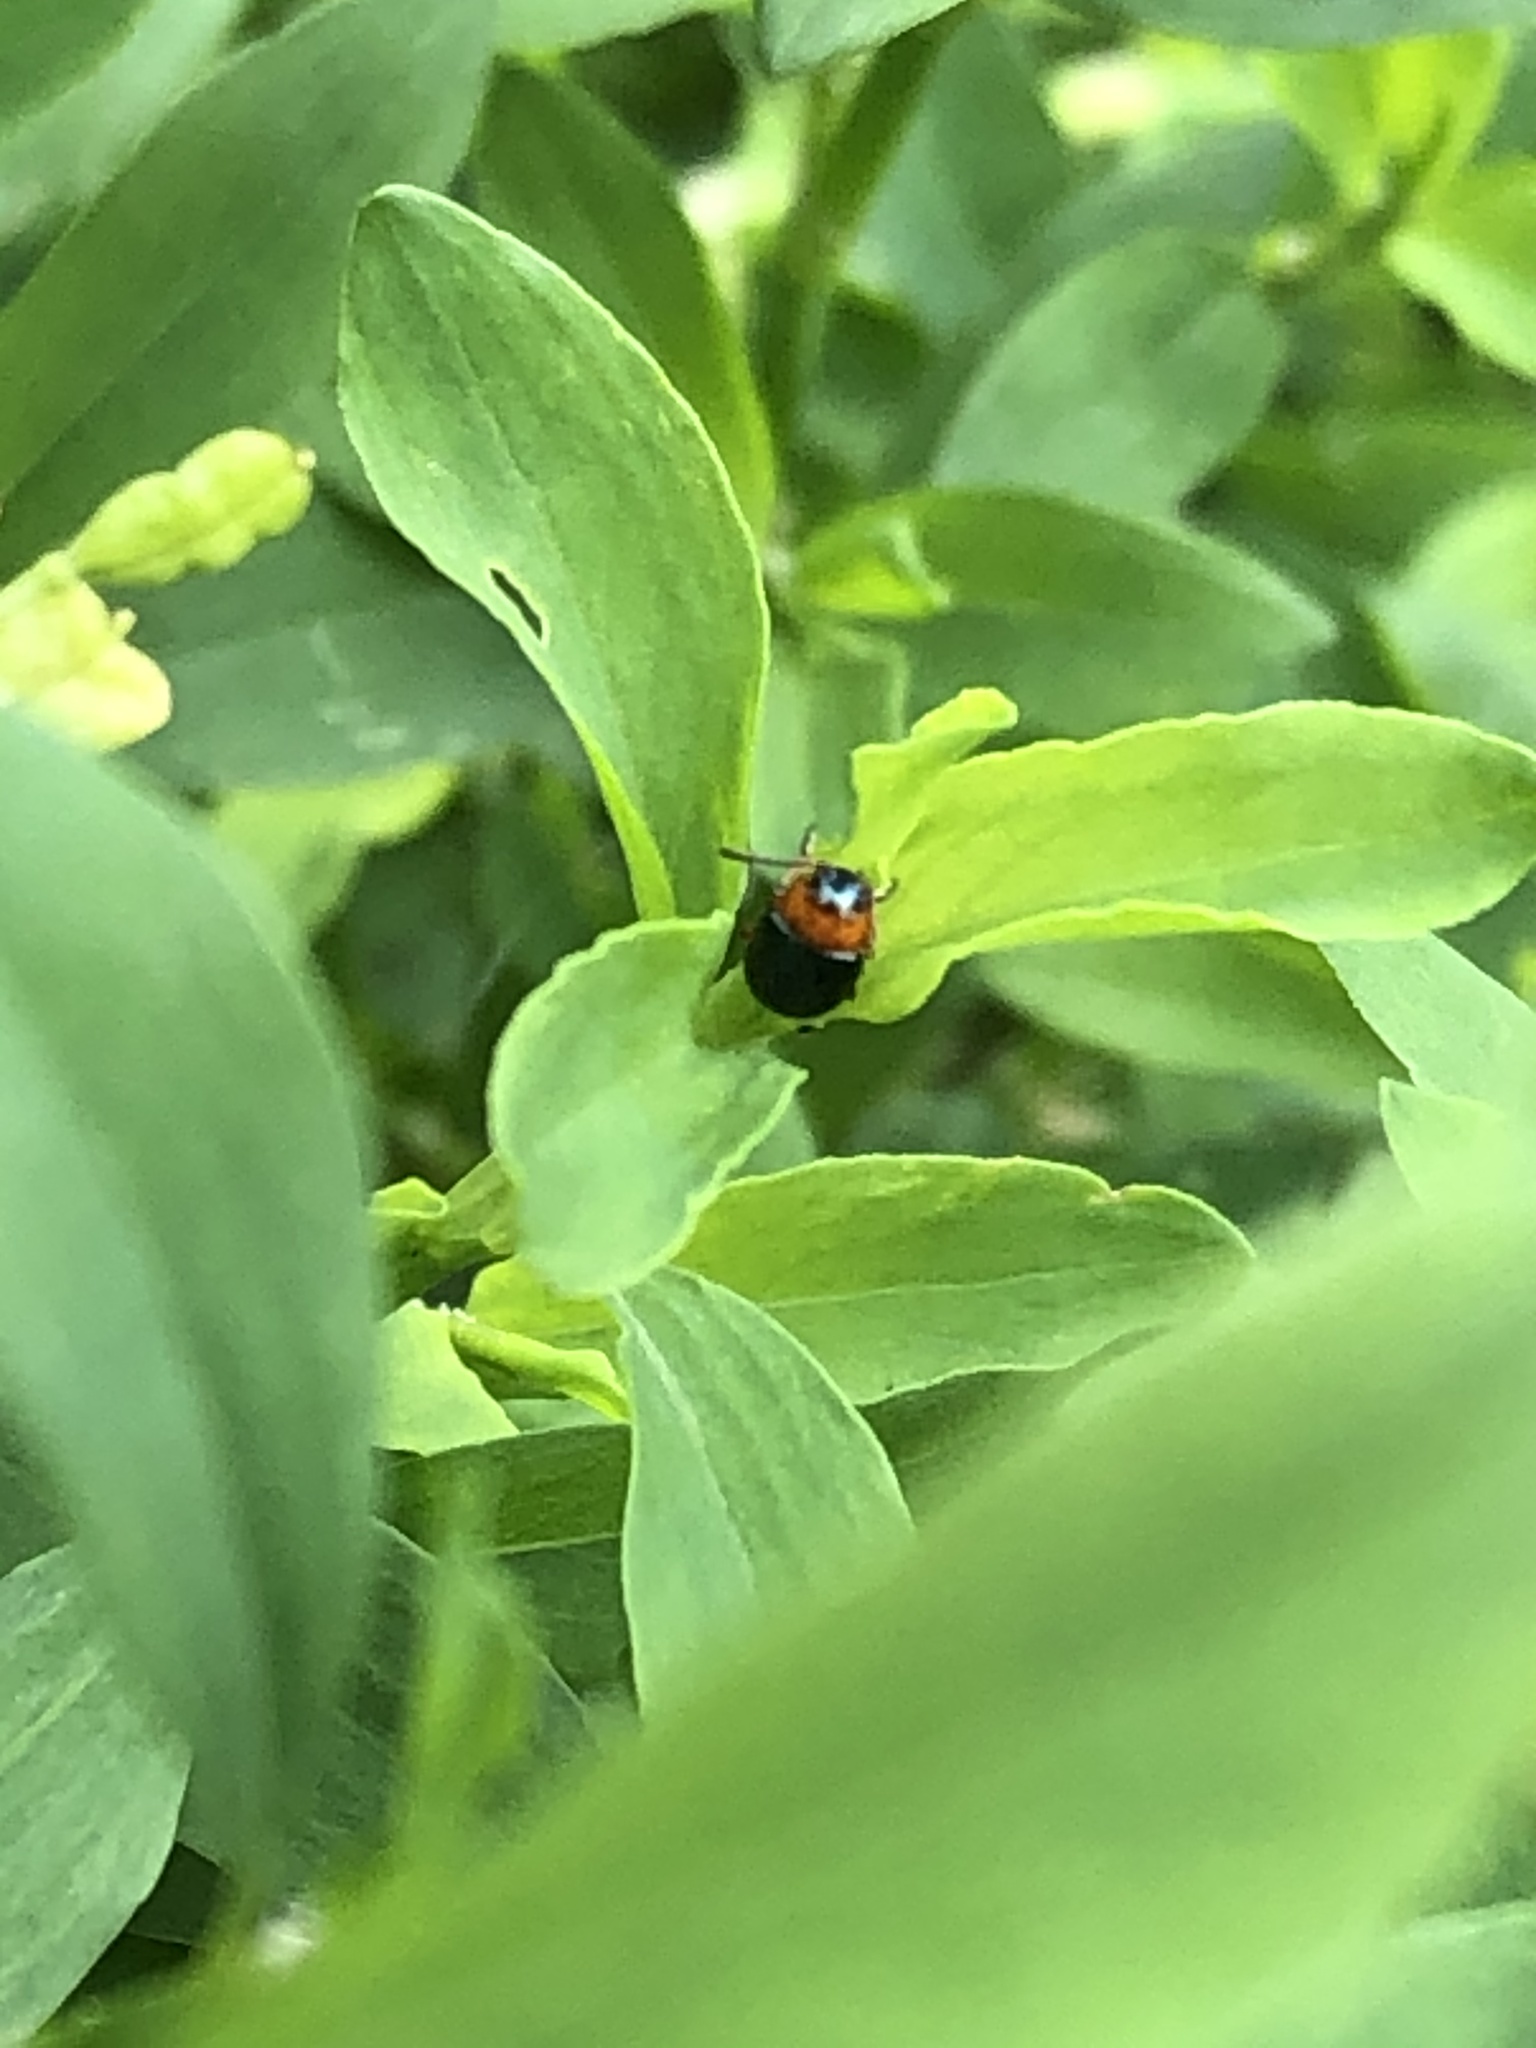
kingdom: Animalia
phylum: Arthropoda
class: Insecta
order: Coleoptera
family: Chrysomelidae
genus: Gastrophysa
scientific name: Gastrophysa polygoni
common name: Knotweed leaf beetle
